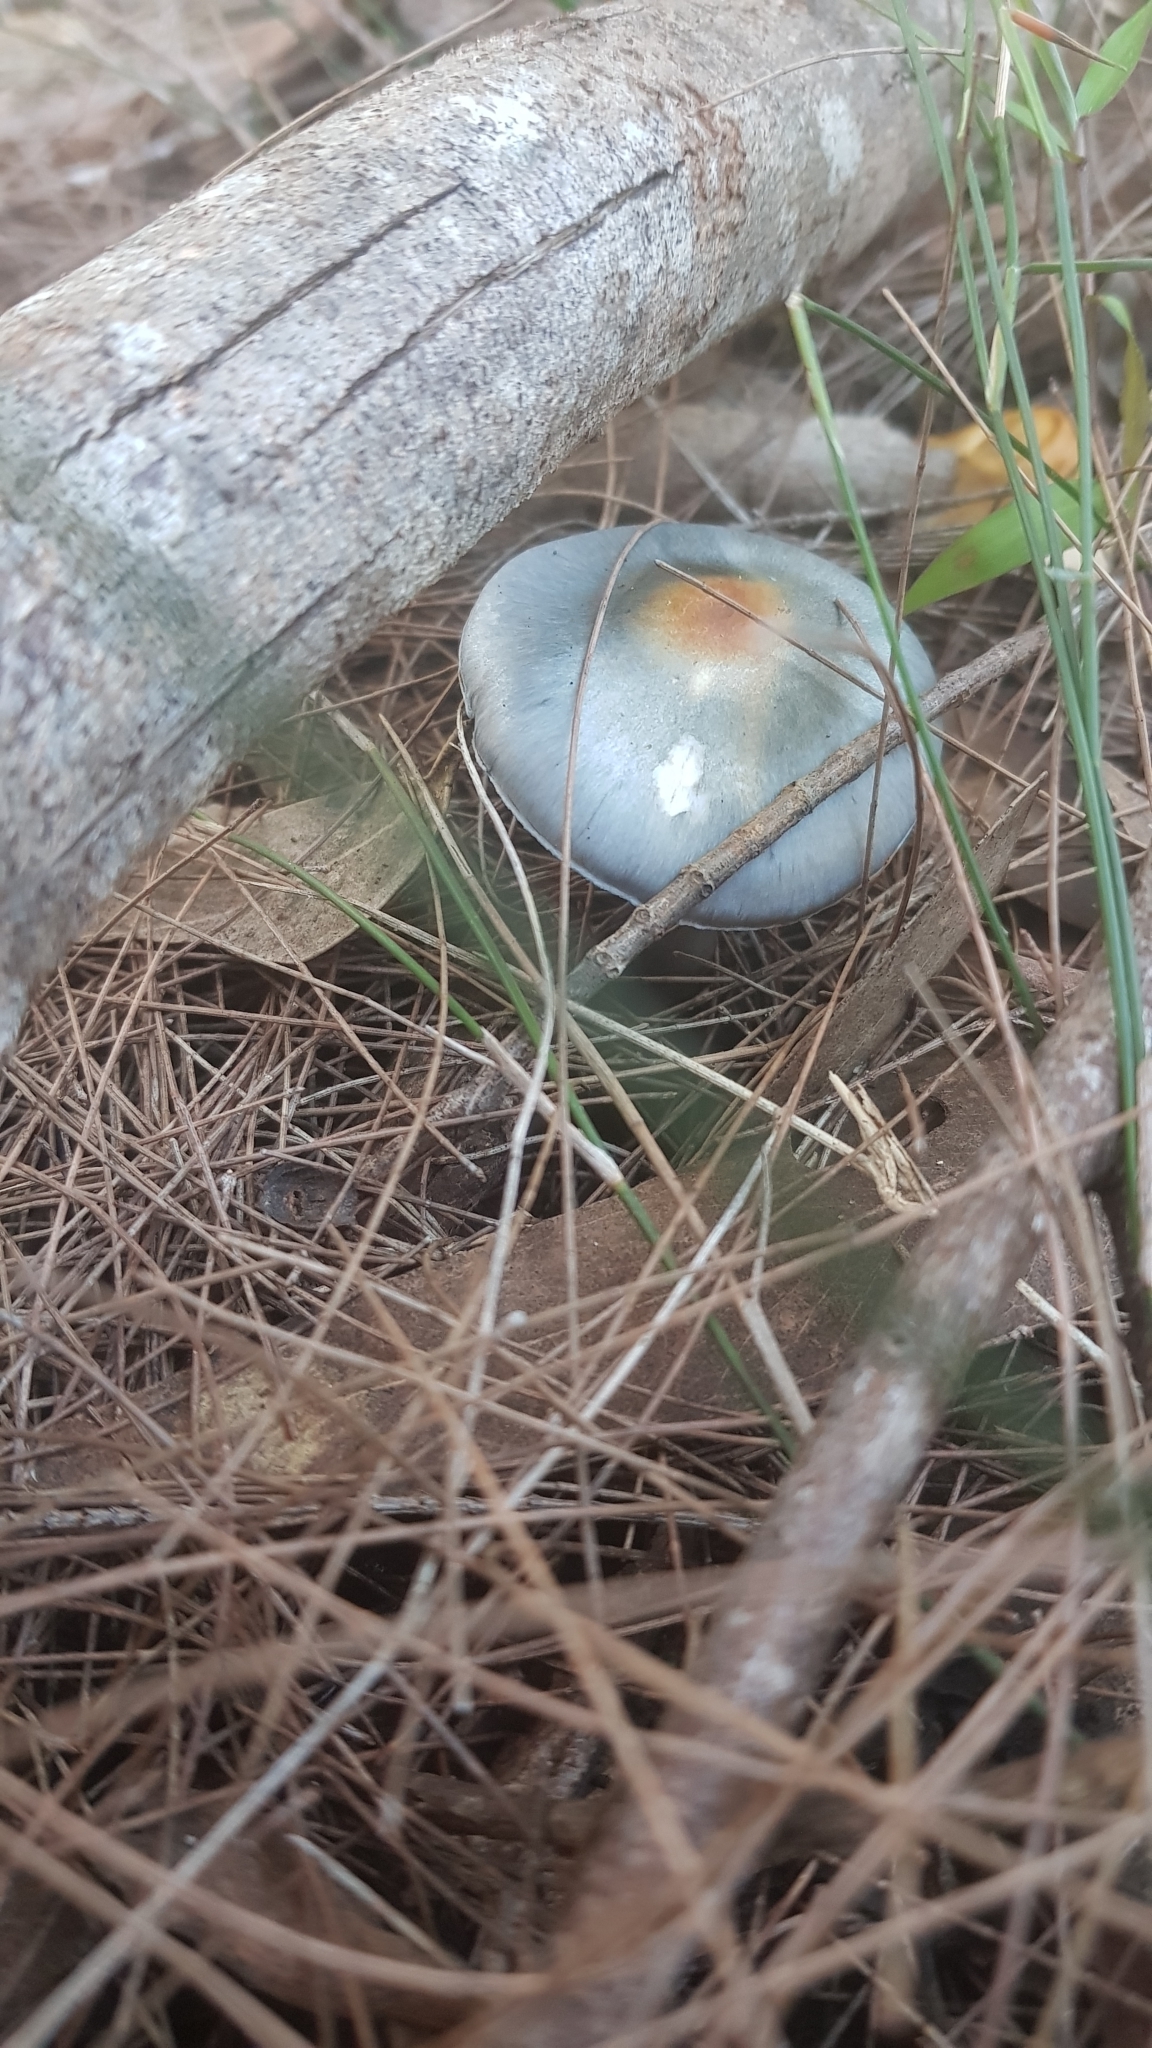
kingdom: Fungi
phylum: Basidiomycota
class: Agaricomycetes
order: Agaricales
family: Cortinariaceae
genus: Cortinarius
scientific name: Cortinarius rotundisporus
